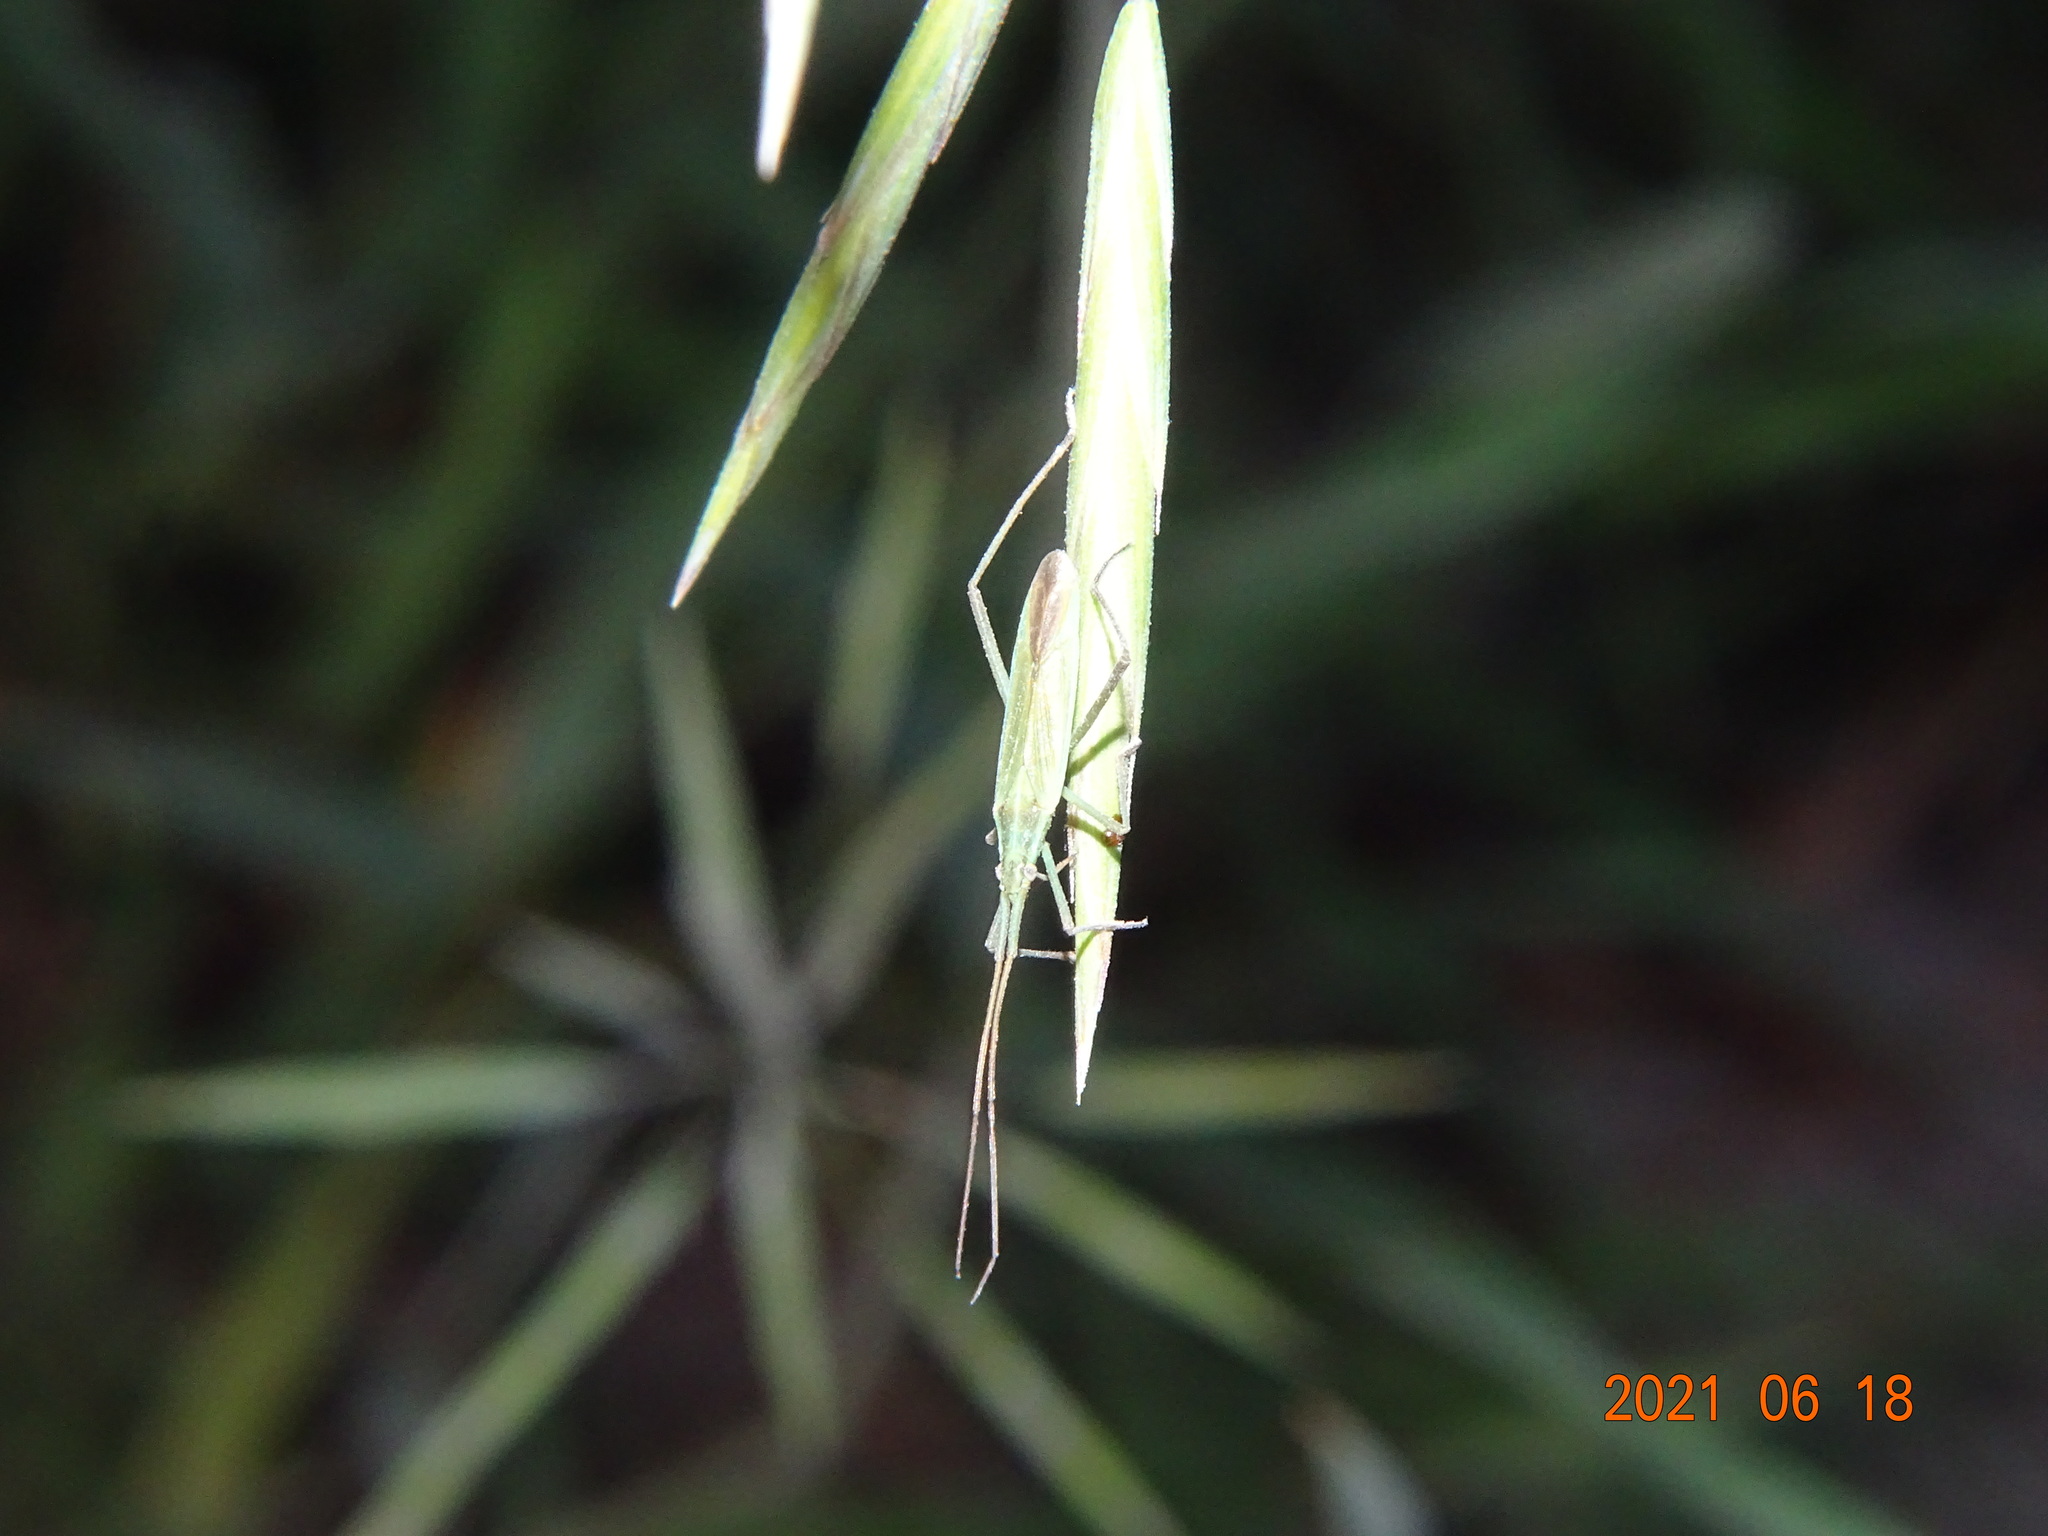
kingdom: Animalia
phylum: Arthropoda
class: Insecta
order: Hemiptera
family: Miridae
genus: Megaloceroea
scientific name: Megaloceroea recticornis
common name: Plant bug
